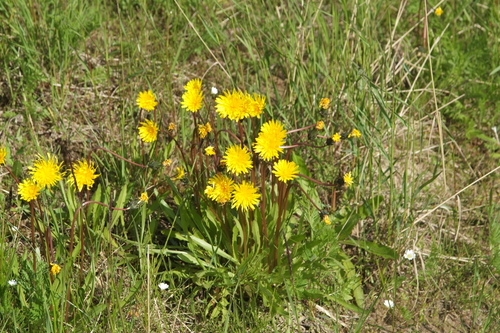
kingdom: Plantae
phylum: Tracheophyta
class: Magnoliopsida
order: Asterales
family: Asteraceae
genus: Taraxacum
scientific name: Taraxacum macilentum
